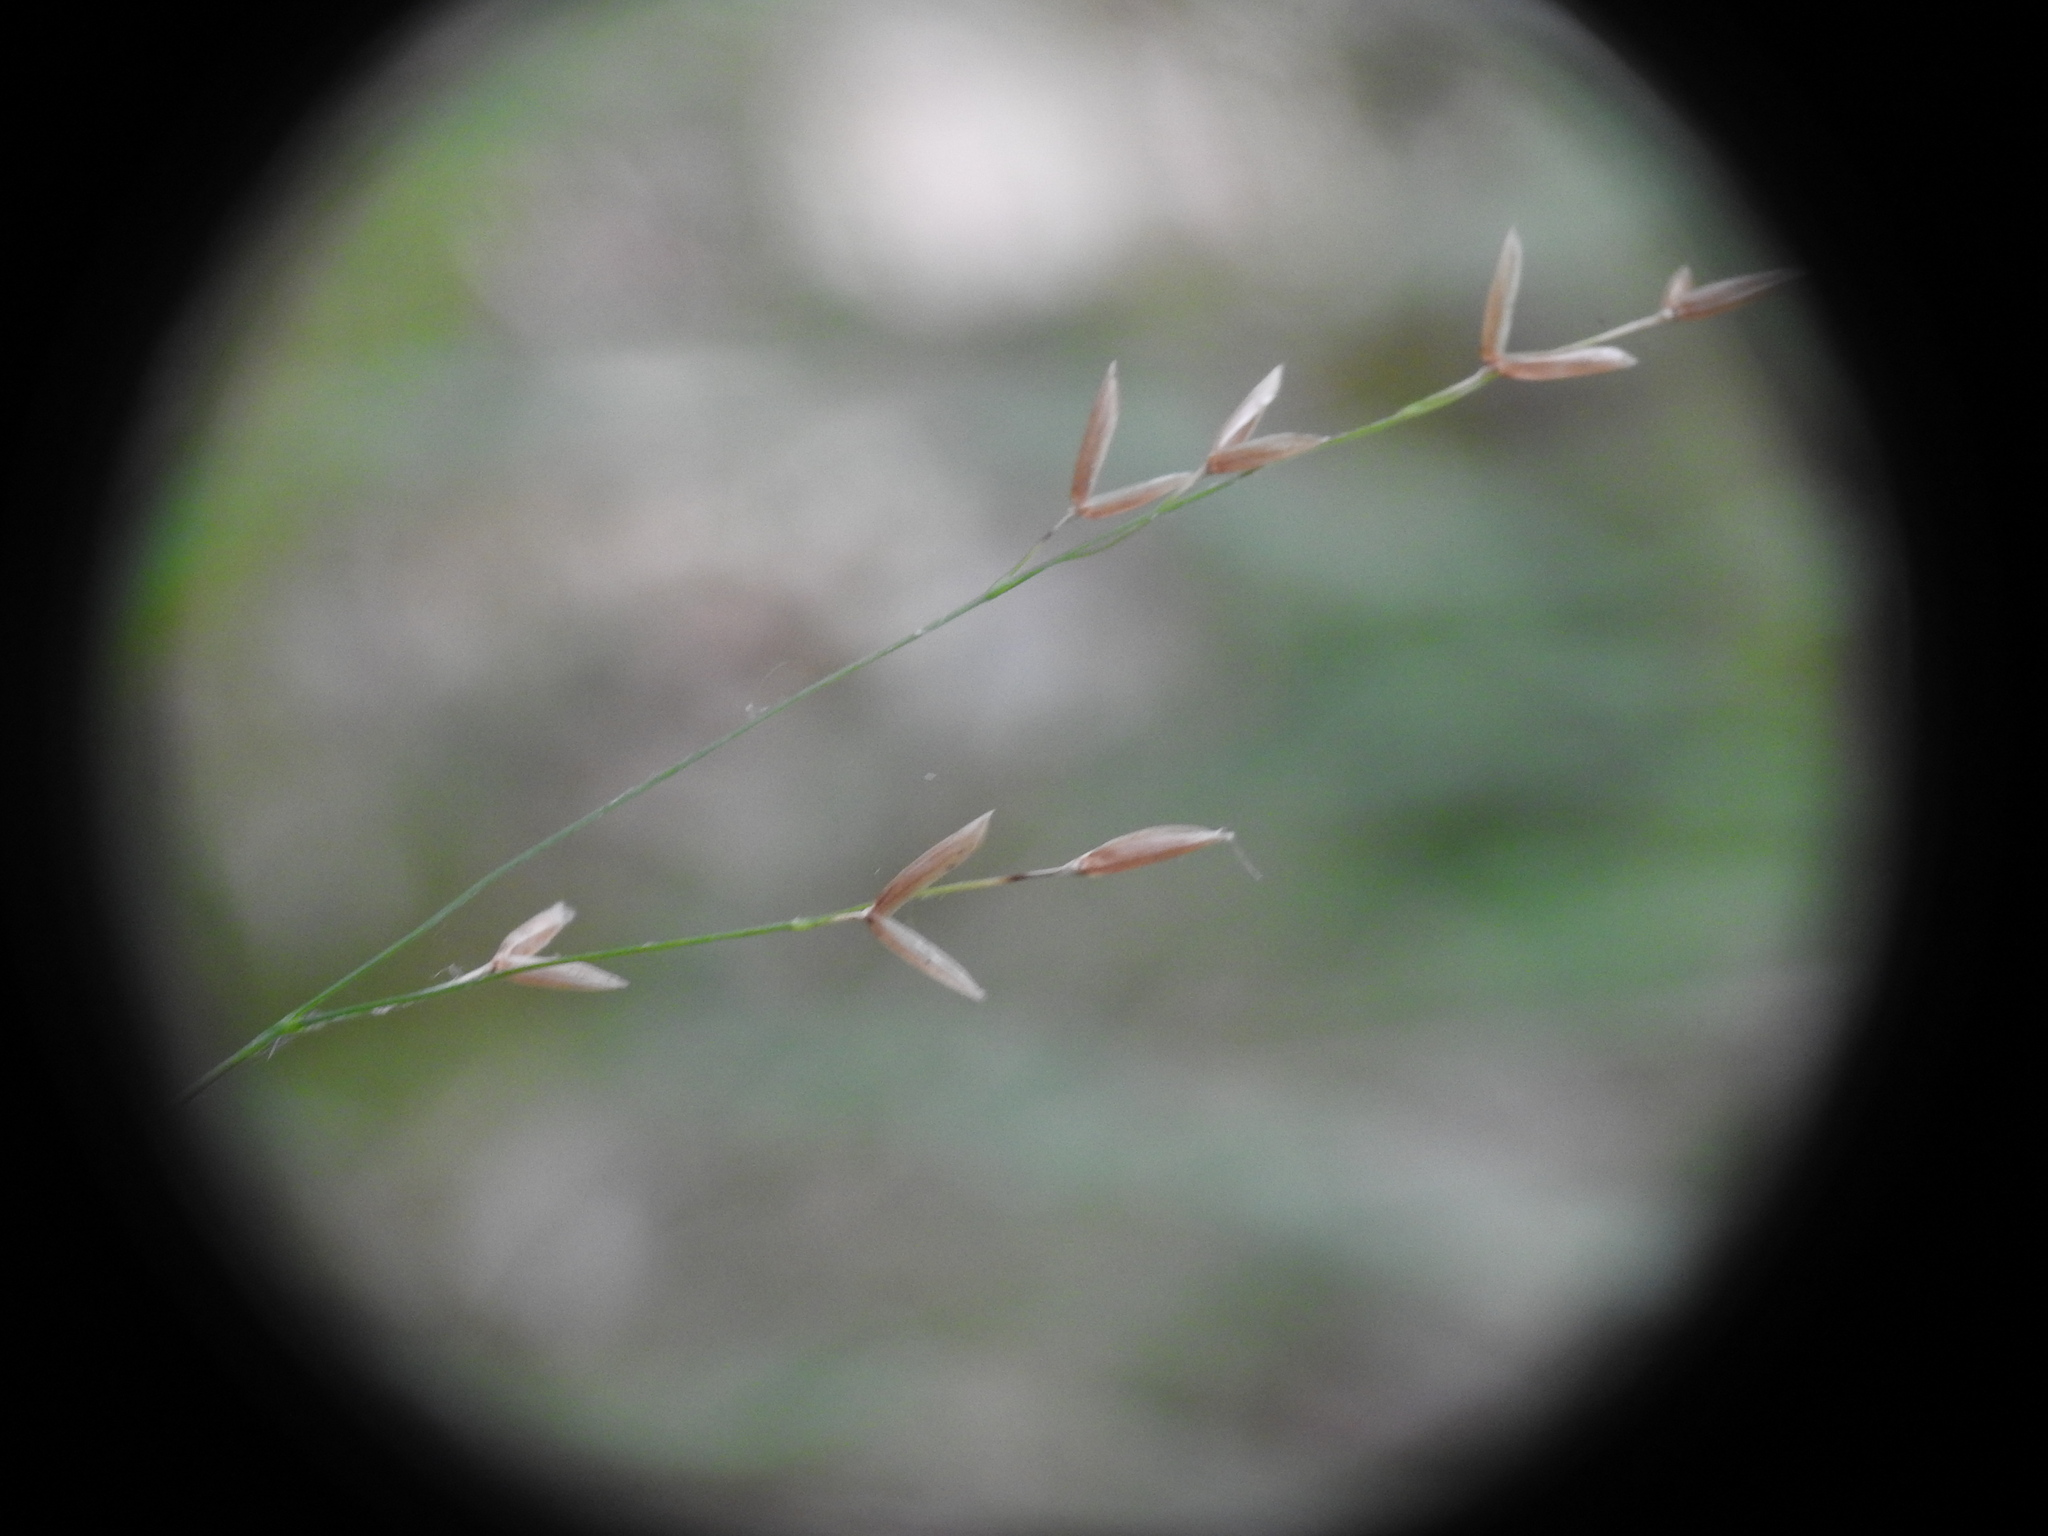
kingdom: Plantae
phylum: Tracheophyta
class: Liliopsida
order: Poales
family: Poaceae
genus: Melica
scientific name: Melica uniflora
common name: Wood melick
